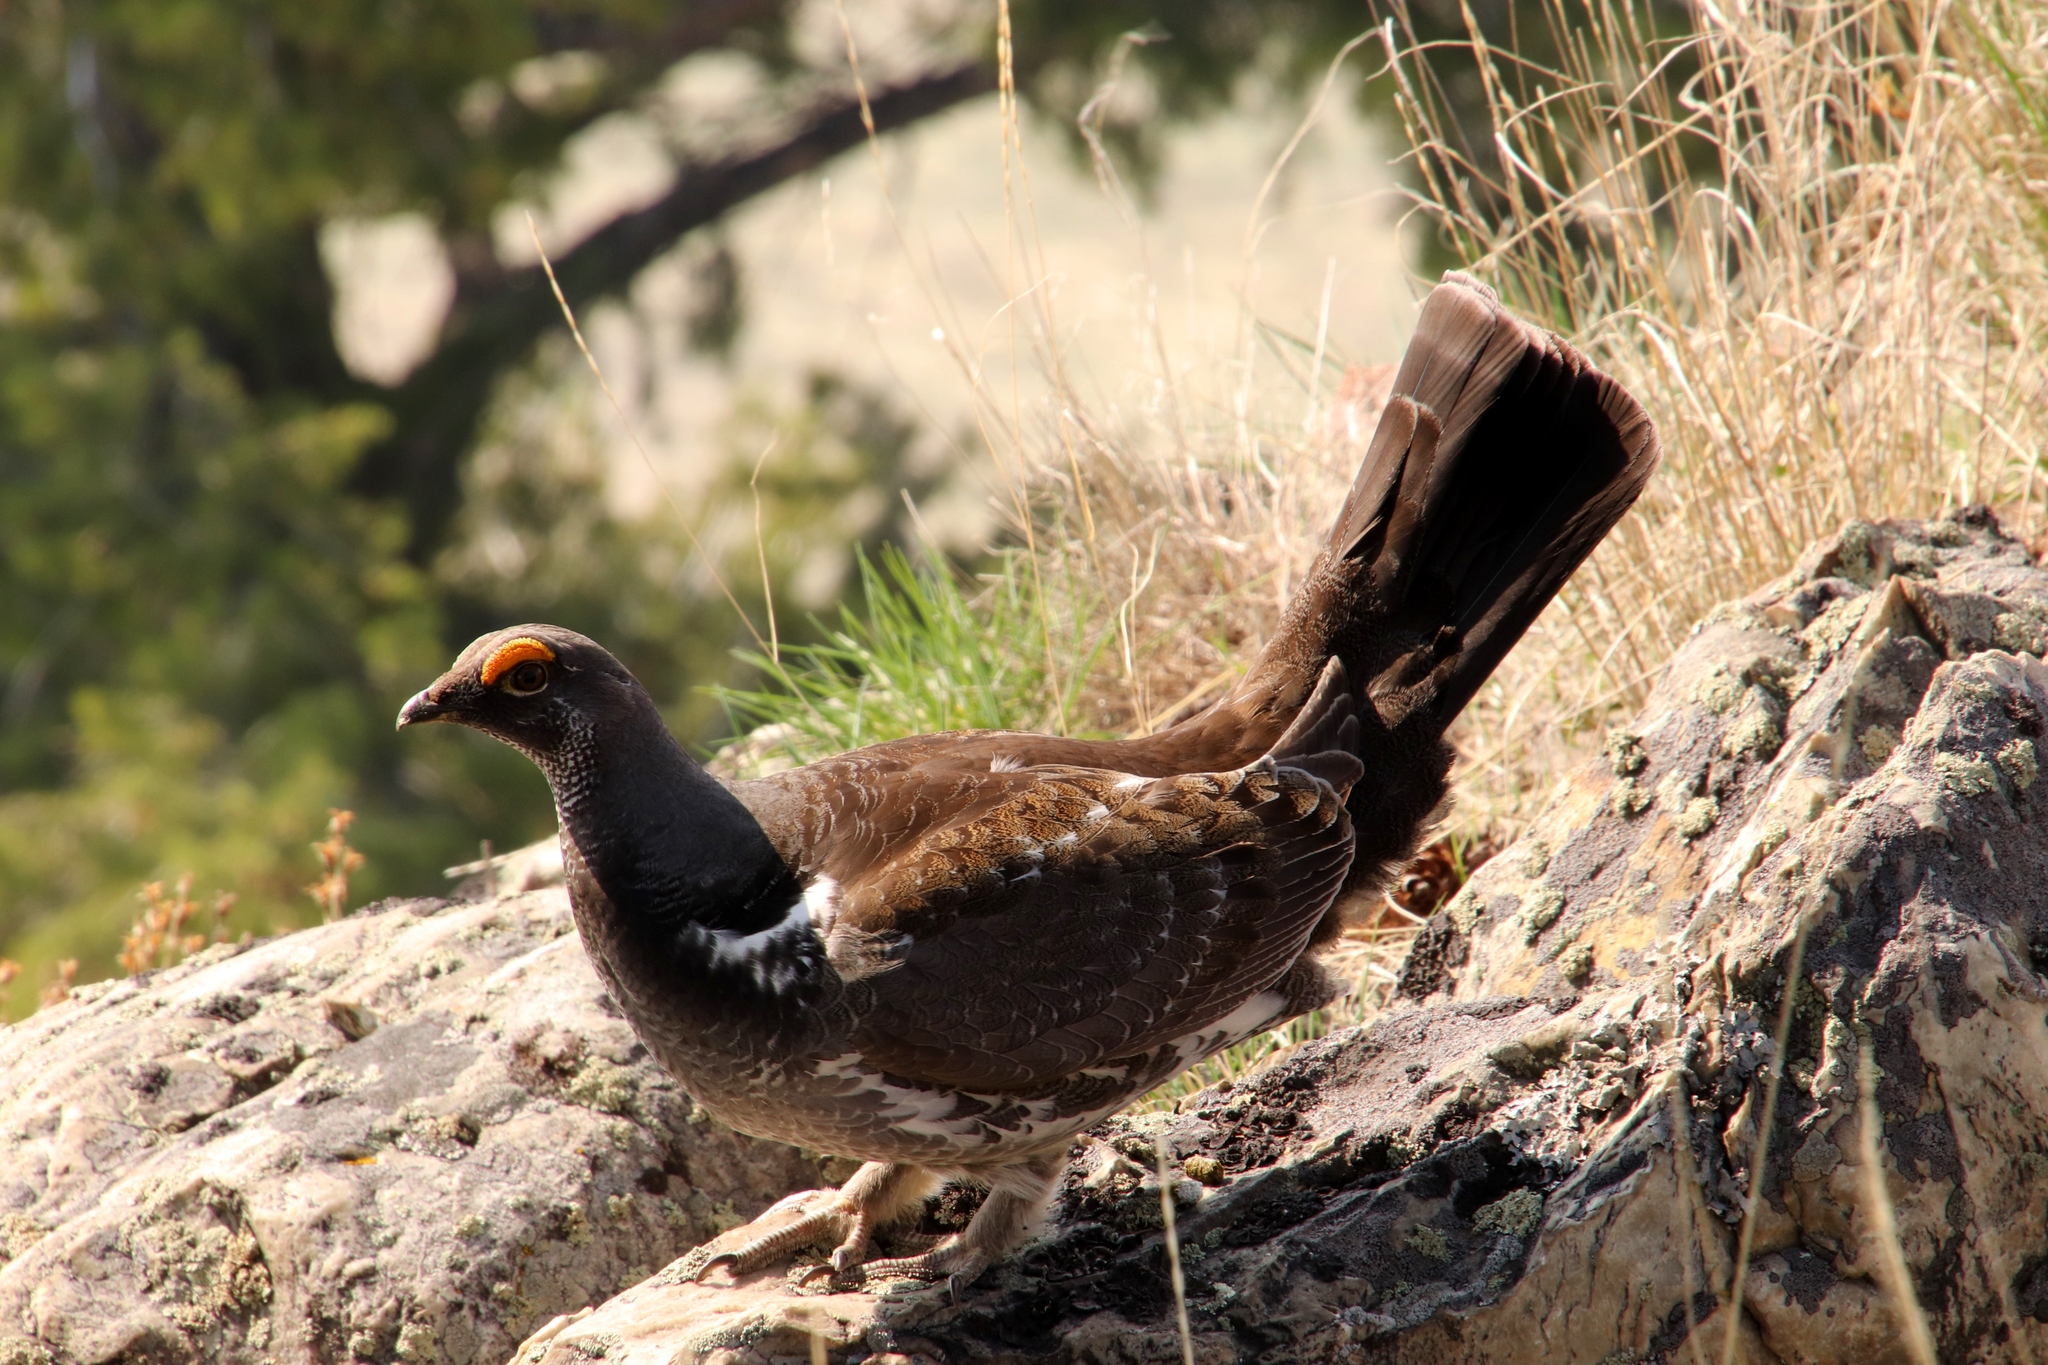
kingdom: Animalia
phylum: Chordata
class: Aves
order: Galliformes
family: Phasianidae
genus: Dendragapus
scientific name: Dendragapus obscurus
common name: Dusky grouse
